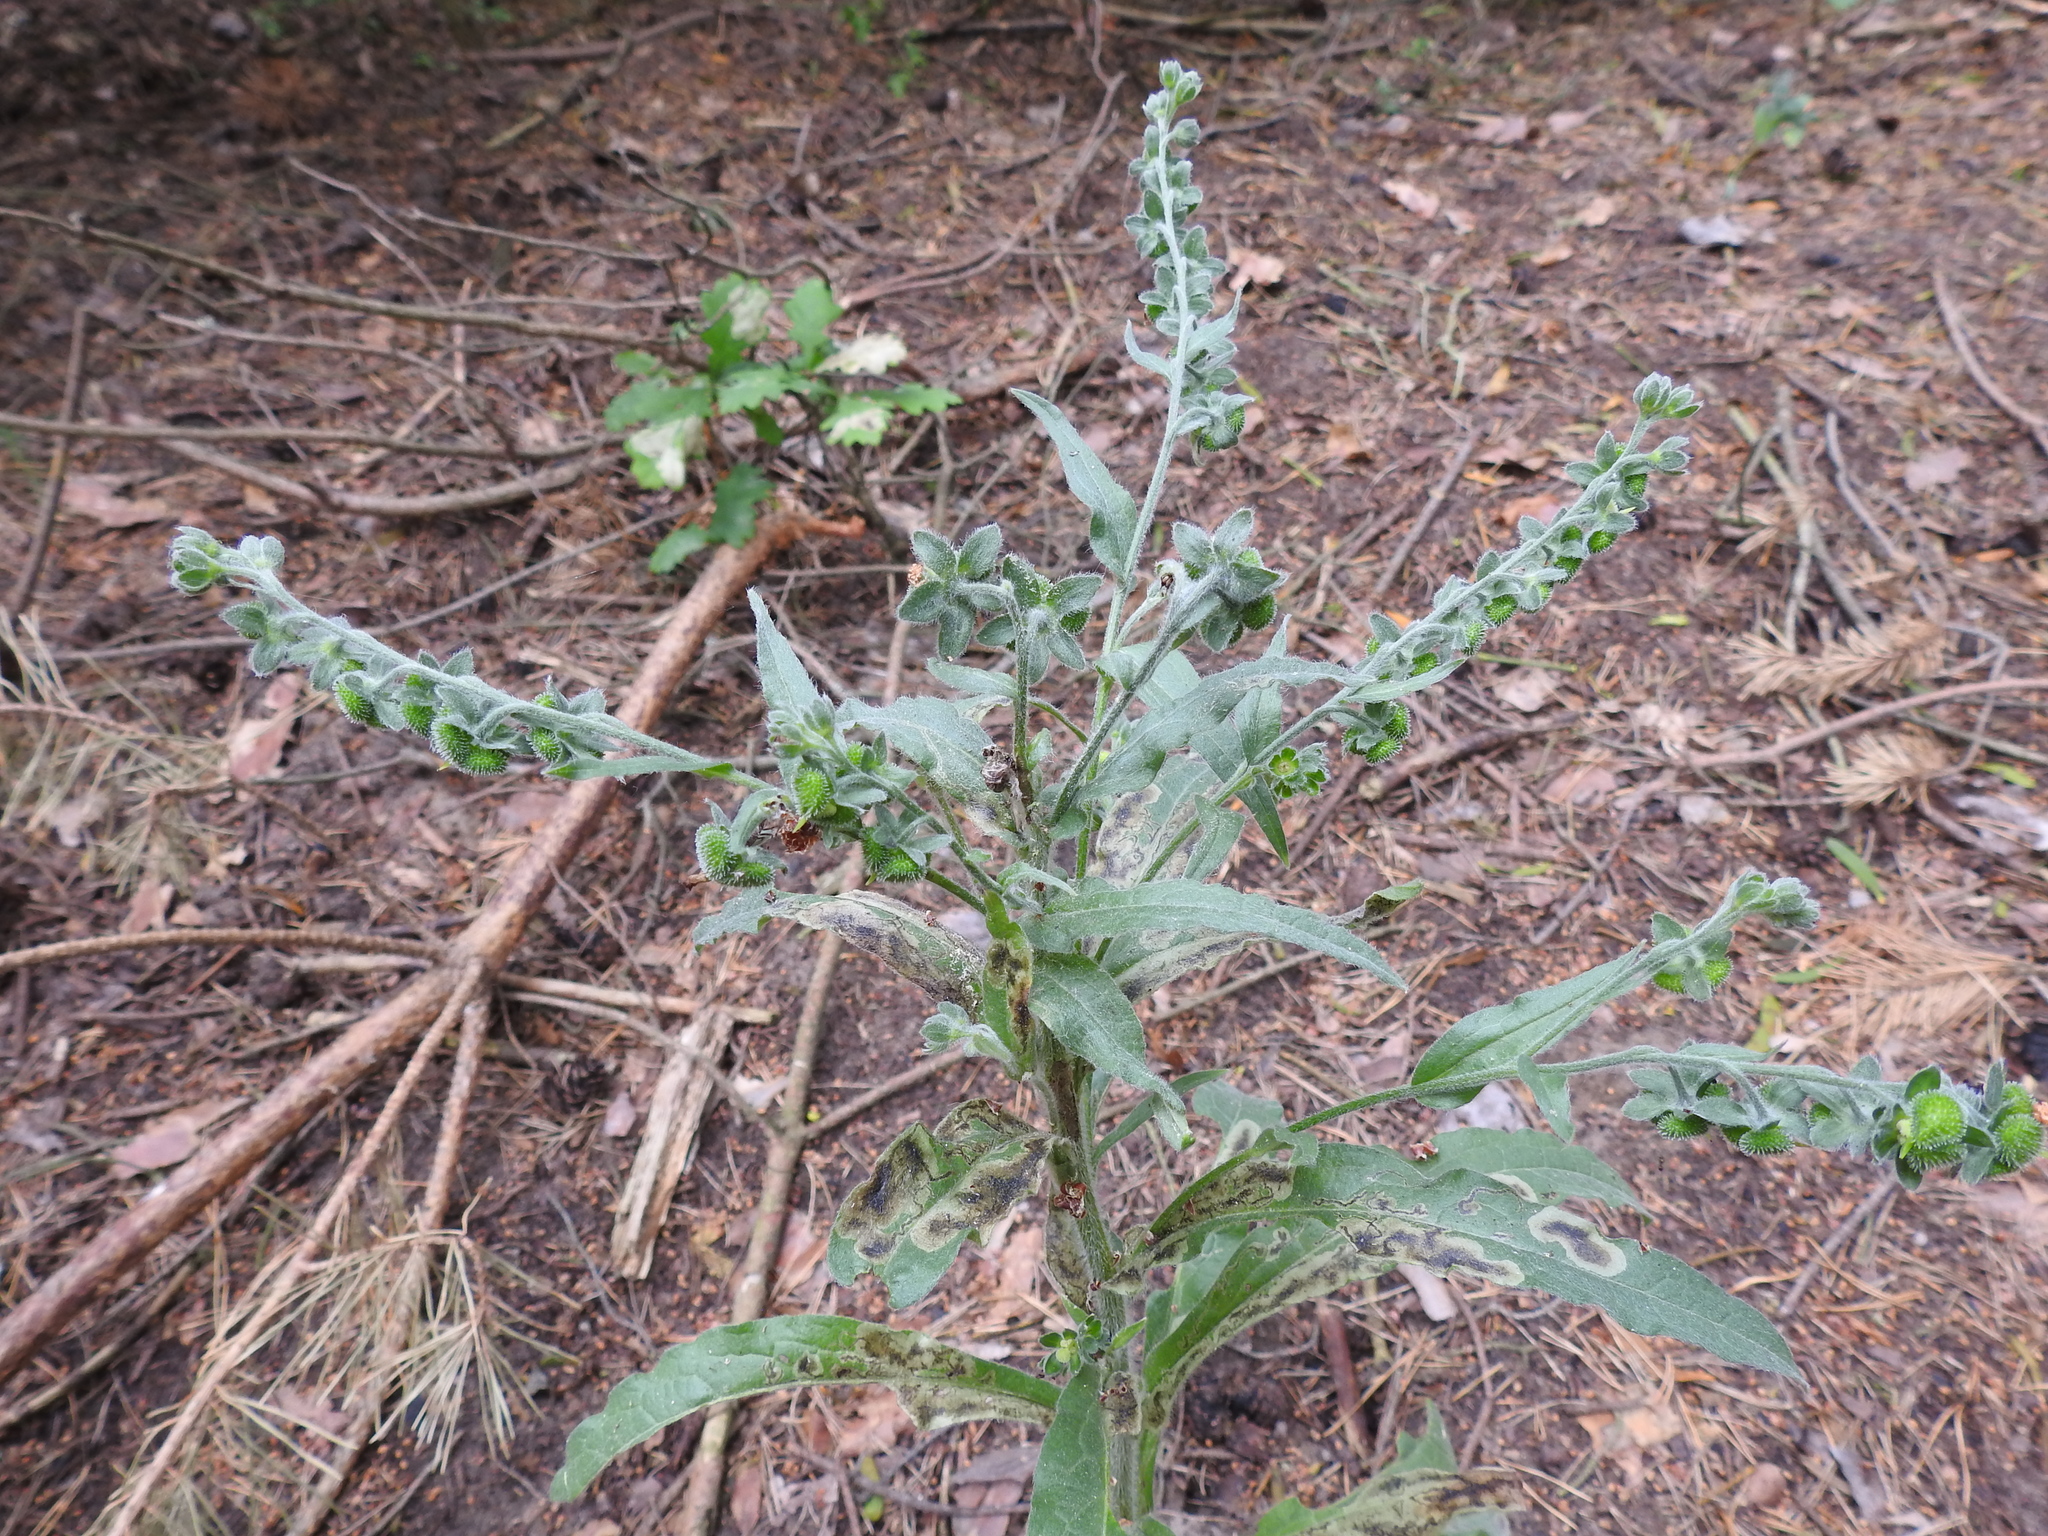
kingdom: Plantae
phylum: Tracheophyta
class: Magnoliopsida
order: Boraginales
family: Boraginaceae
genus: Cynoglossum
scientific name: Cynoglossum officinale
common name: Hound's-tongue
